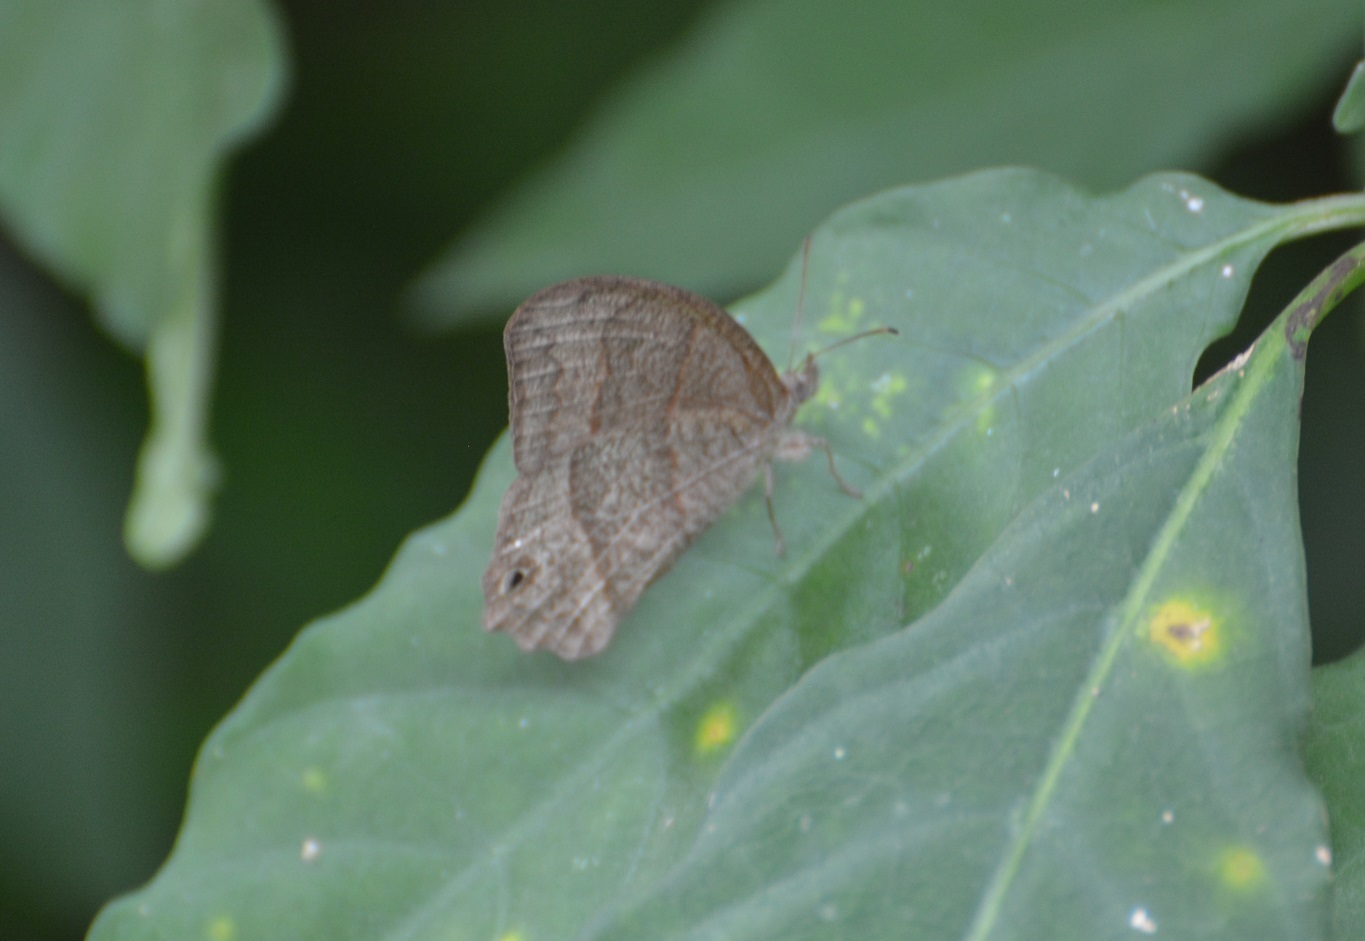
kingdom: Animalia
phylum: Arthropoda
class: Insecta
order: Lepidoptera
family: Nymphalidae
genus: Euptychia
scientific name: Euptychia Cyllopsis hedemanni
